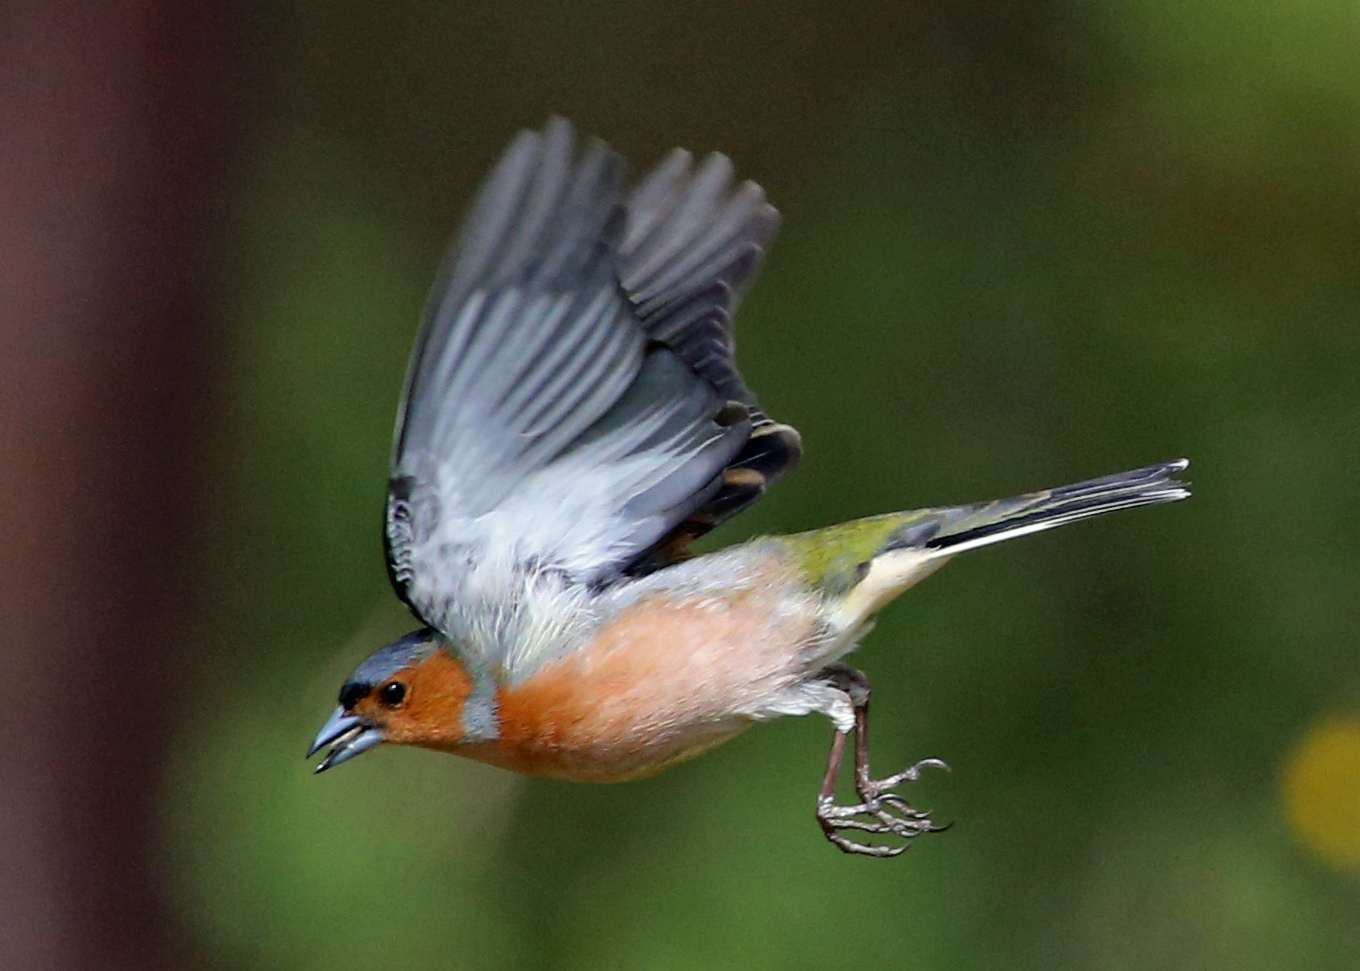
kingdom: Animalia
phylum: Chordata
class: Aves
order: Passeriformes
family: Fringillidae
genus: Fringilla
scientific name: Fringilla coelebs
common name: Common chaffinch
